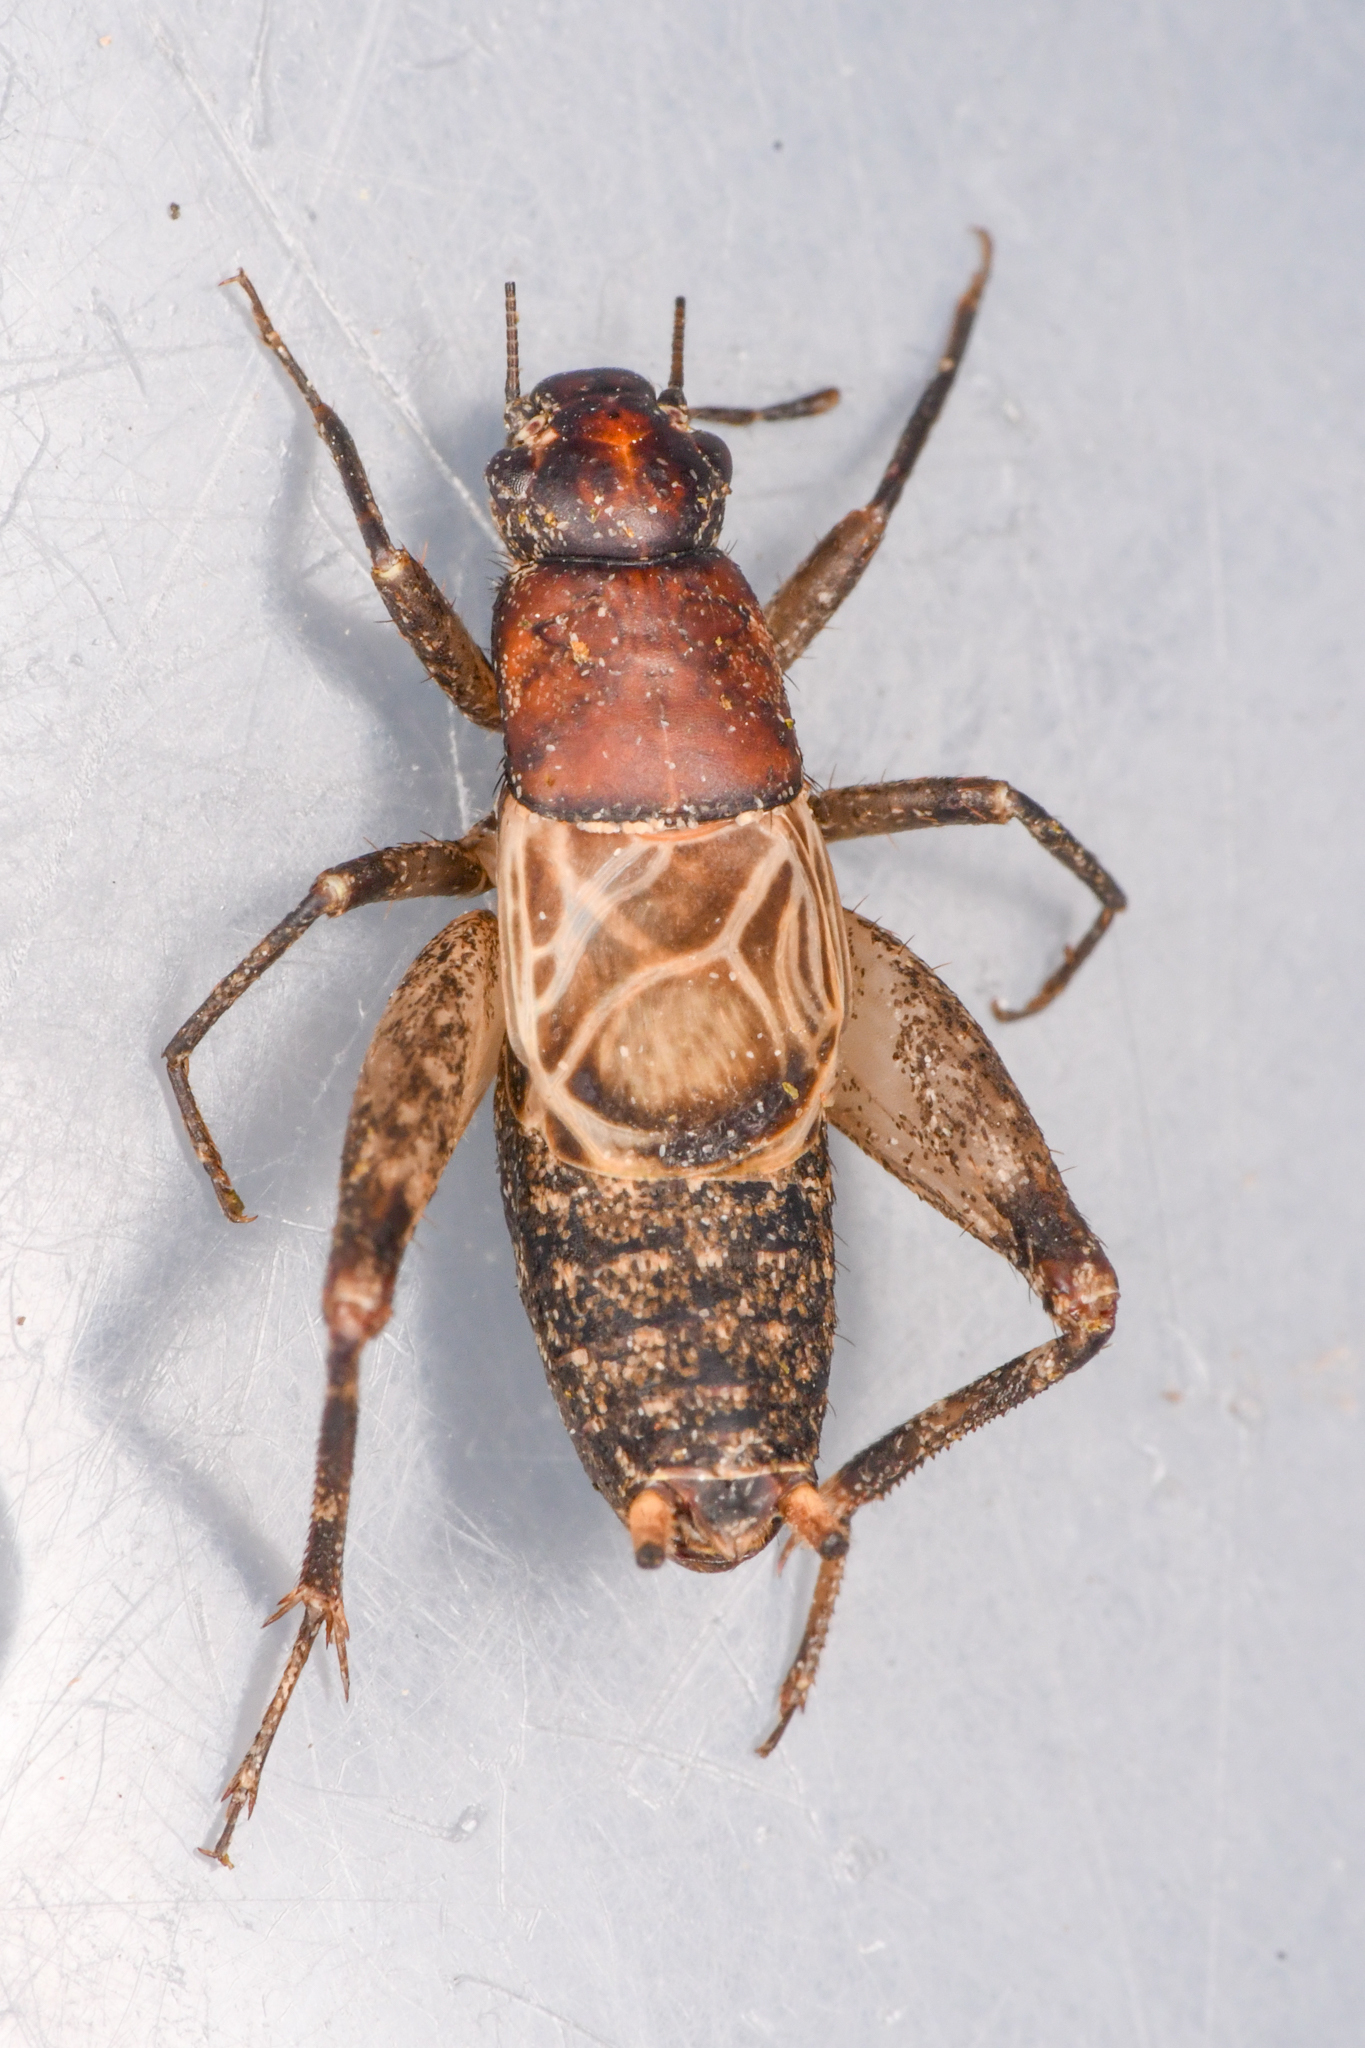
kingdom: Animalia
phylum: Arthropoda
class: Insecta
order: Orthoptera
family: Mogoplistidae
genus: Hoplosphyrum
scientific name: Hoplosphyrum boreale
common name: Long-winged scaly cricket
